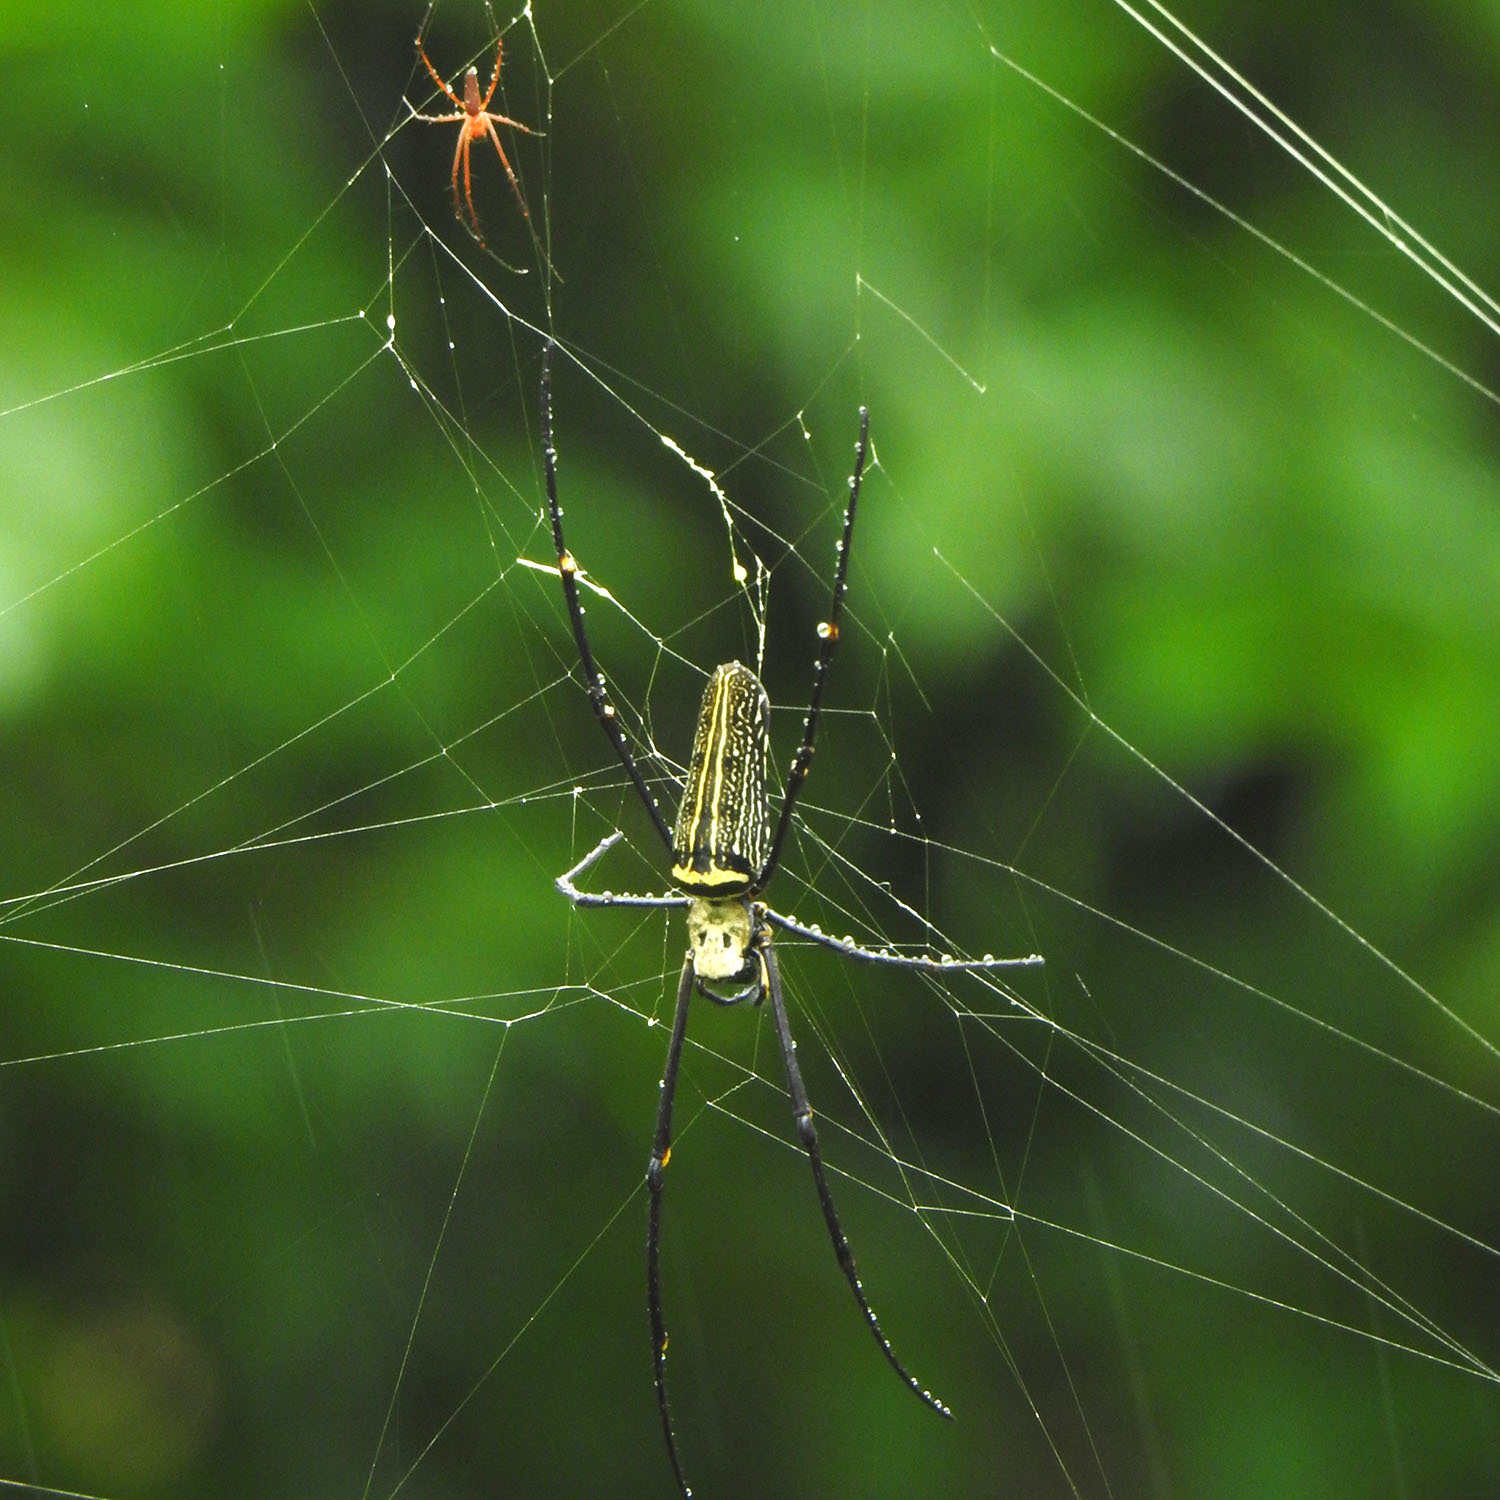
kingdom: Animalia
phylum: Arthropoda
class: Arachnida
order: Araneae
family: Araneidae
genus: Nephila
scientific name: Nephila pilipes
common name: Giant golden orb weaver
